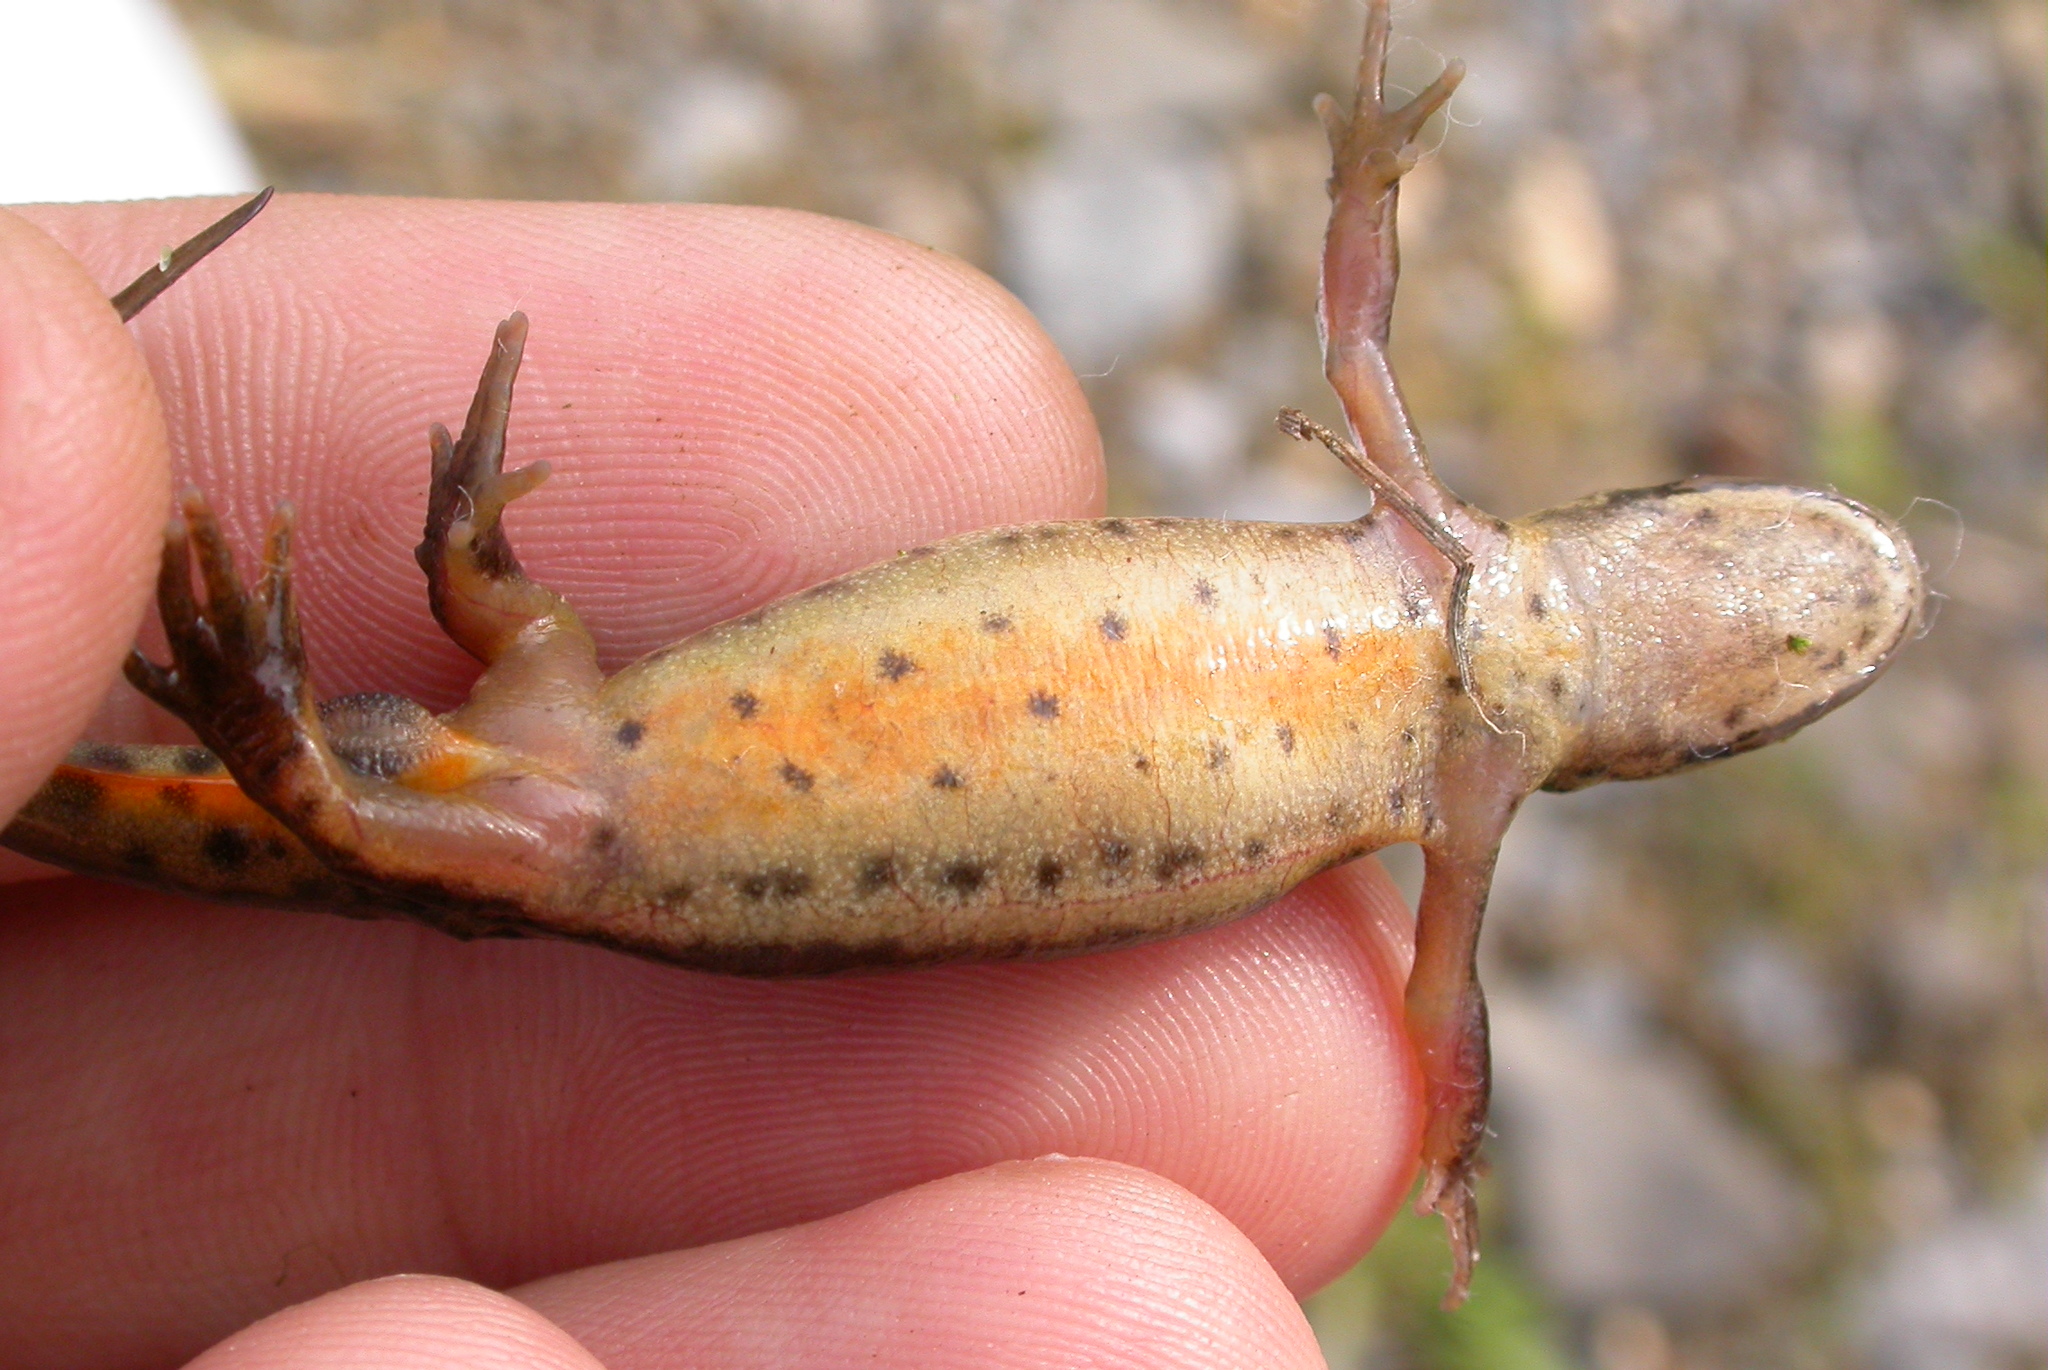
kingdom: Animalia
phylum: Chordata
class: Amphibia
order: Caudata
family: Salamandridae
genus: Lissotriton
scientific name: Lissotriton vulgaris
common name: Smooth newt
